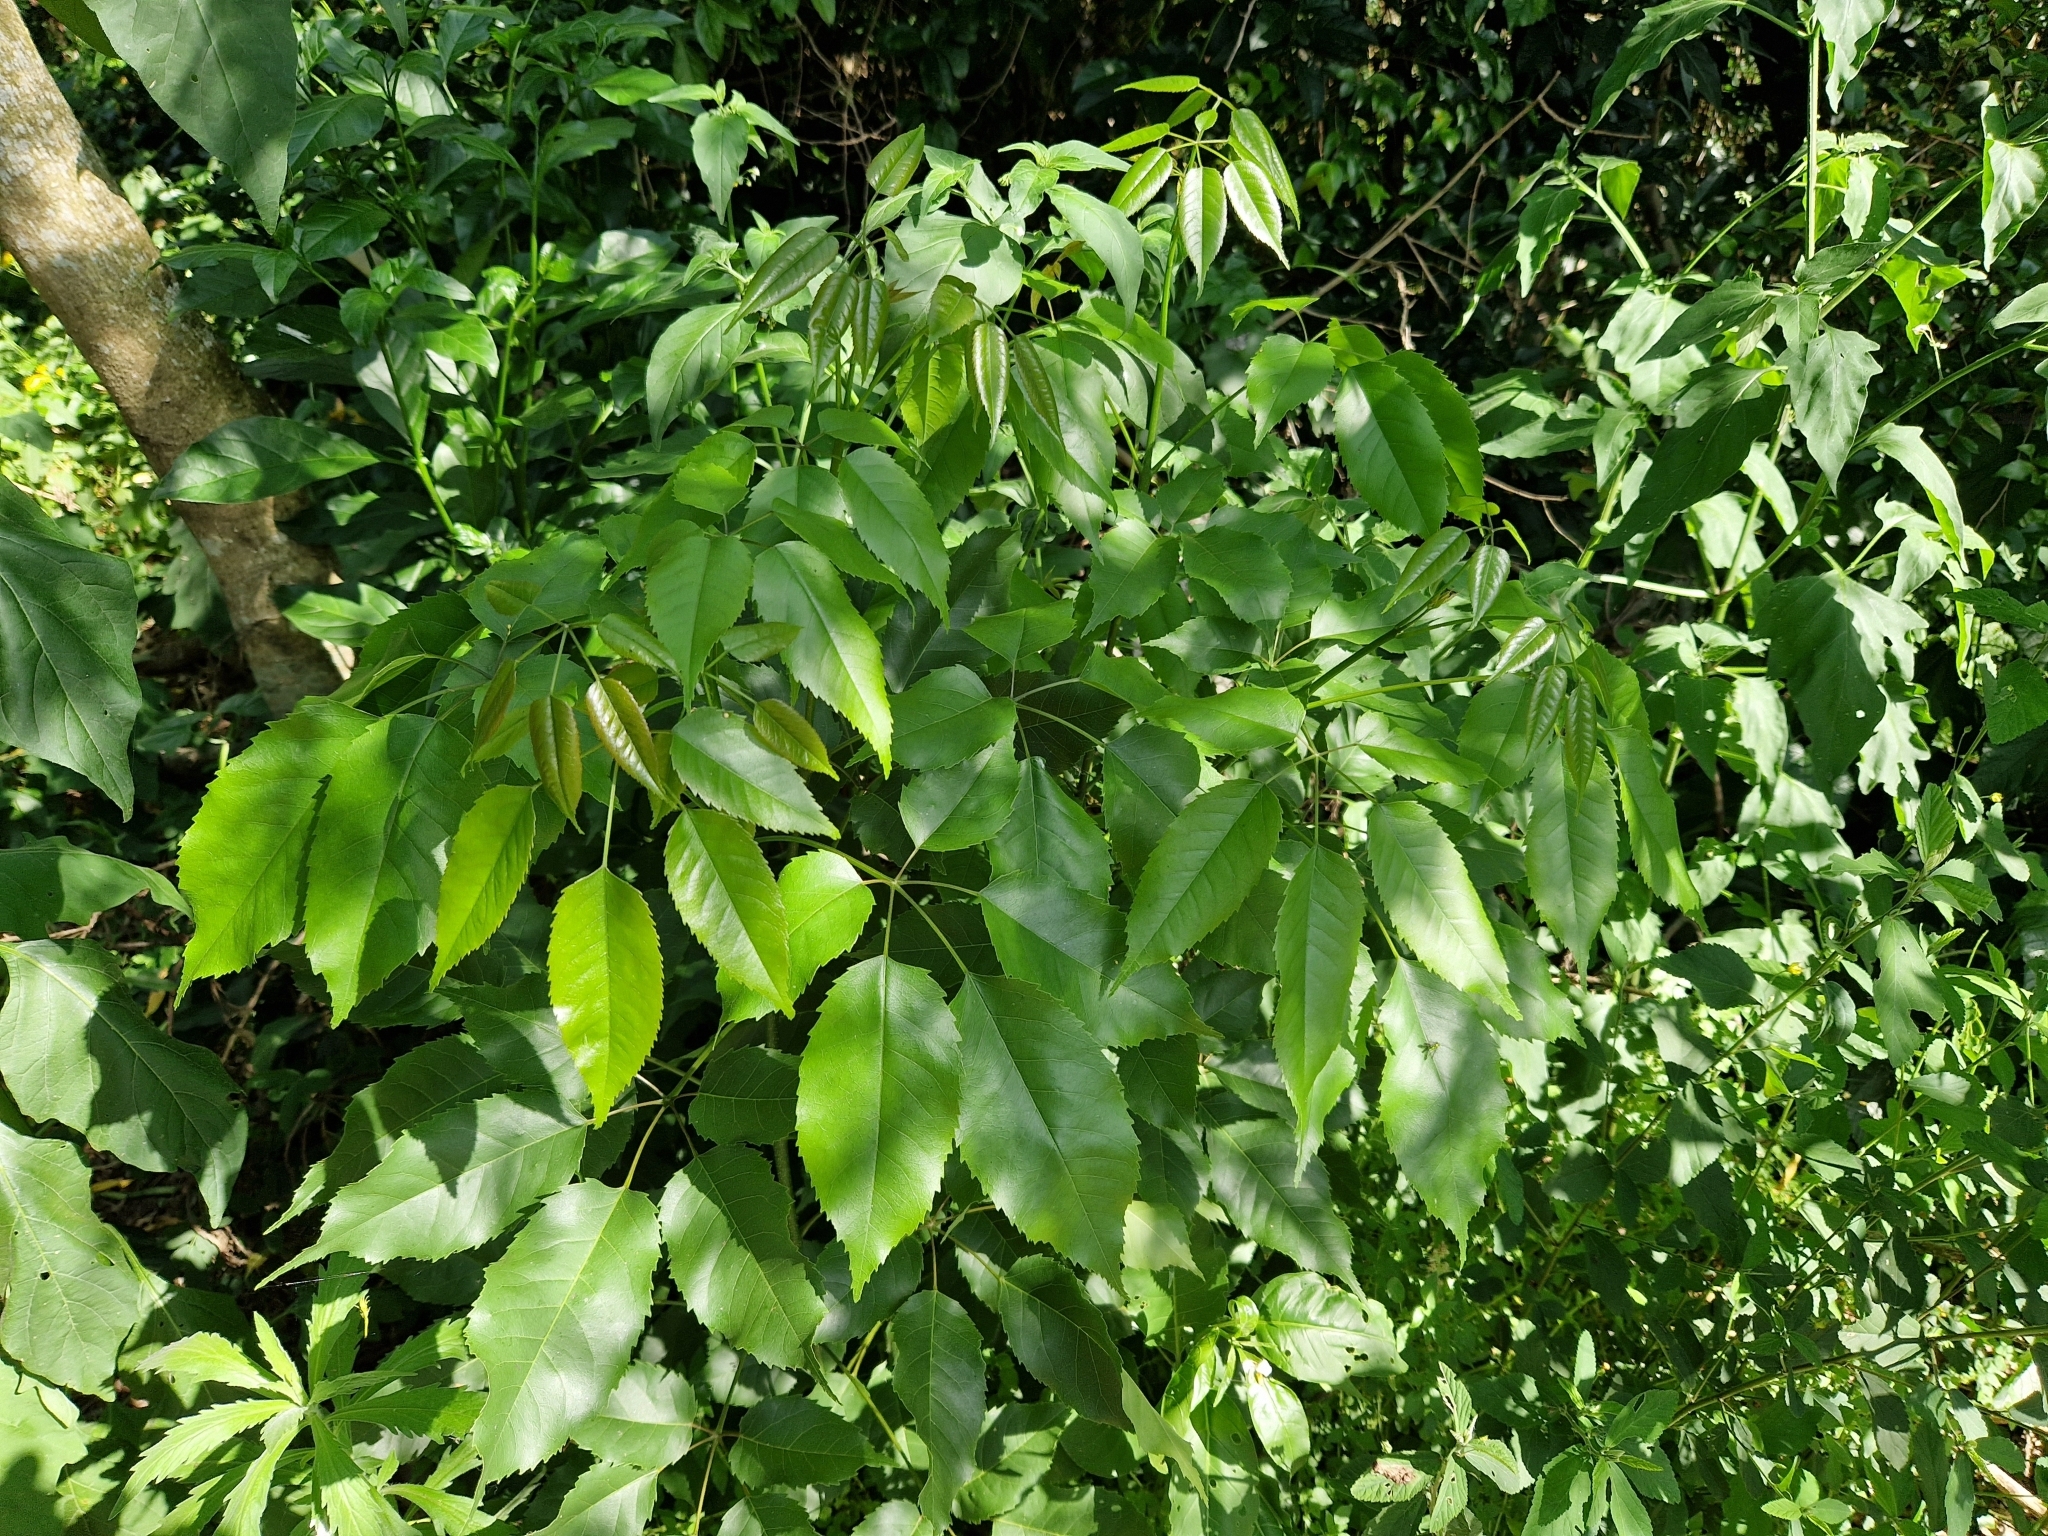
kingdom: Plantae
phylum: Tracheophyta
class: Magnoliopsida
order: Lamiales
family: Bignoniaceae
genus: Handroanthus
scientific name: Handroanthus heptaphyllus
